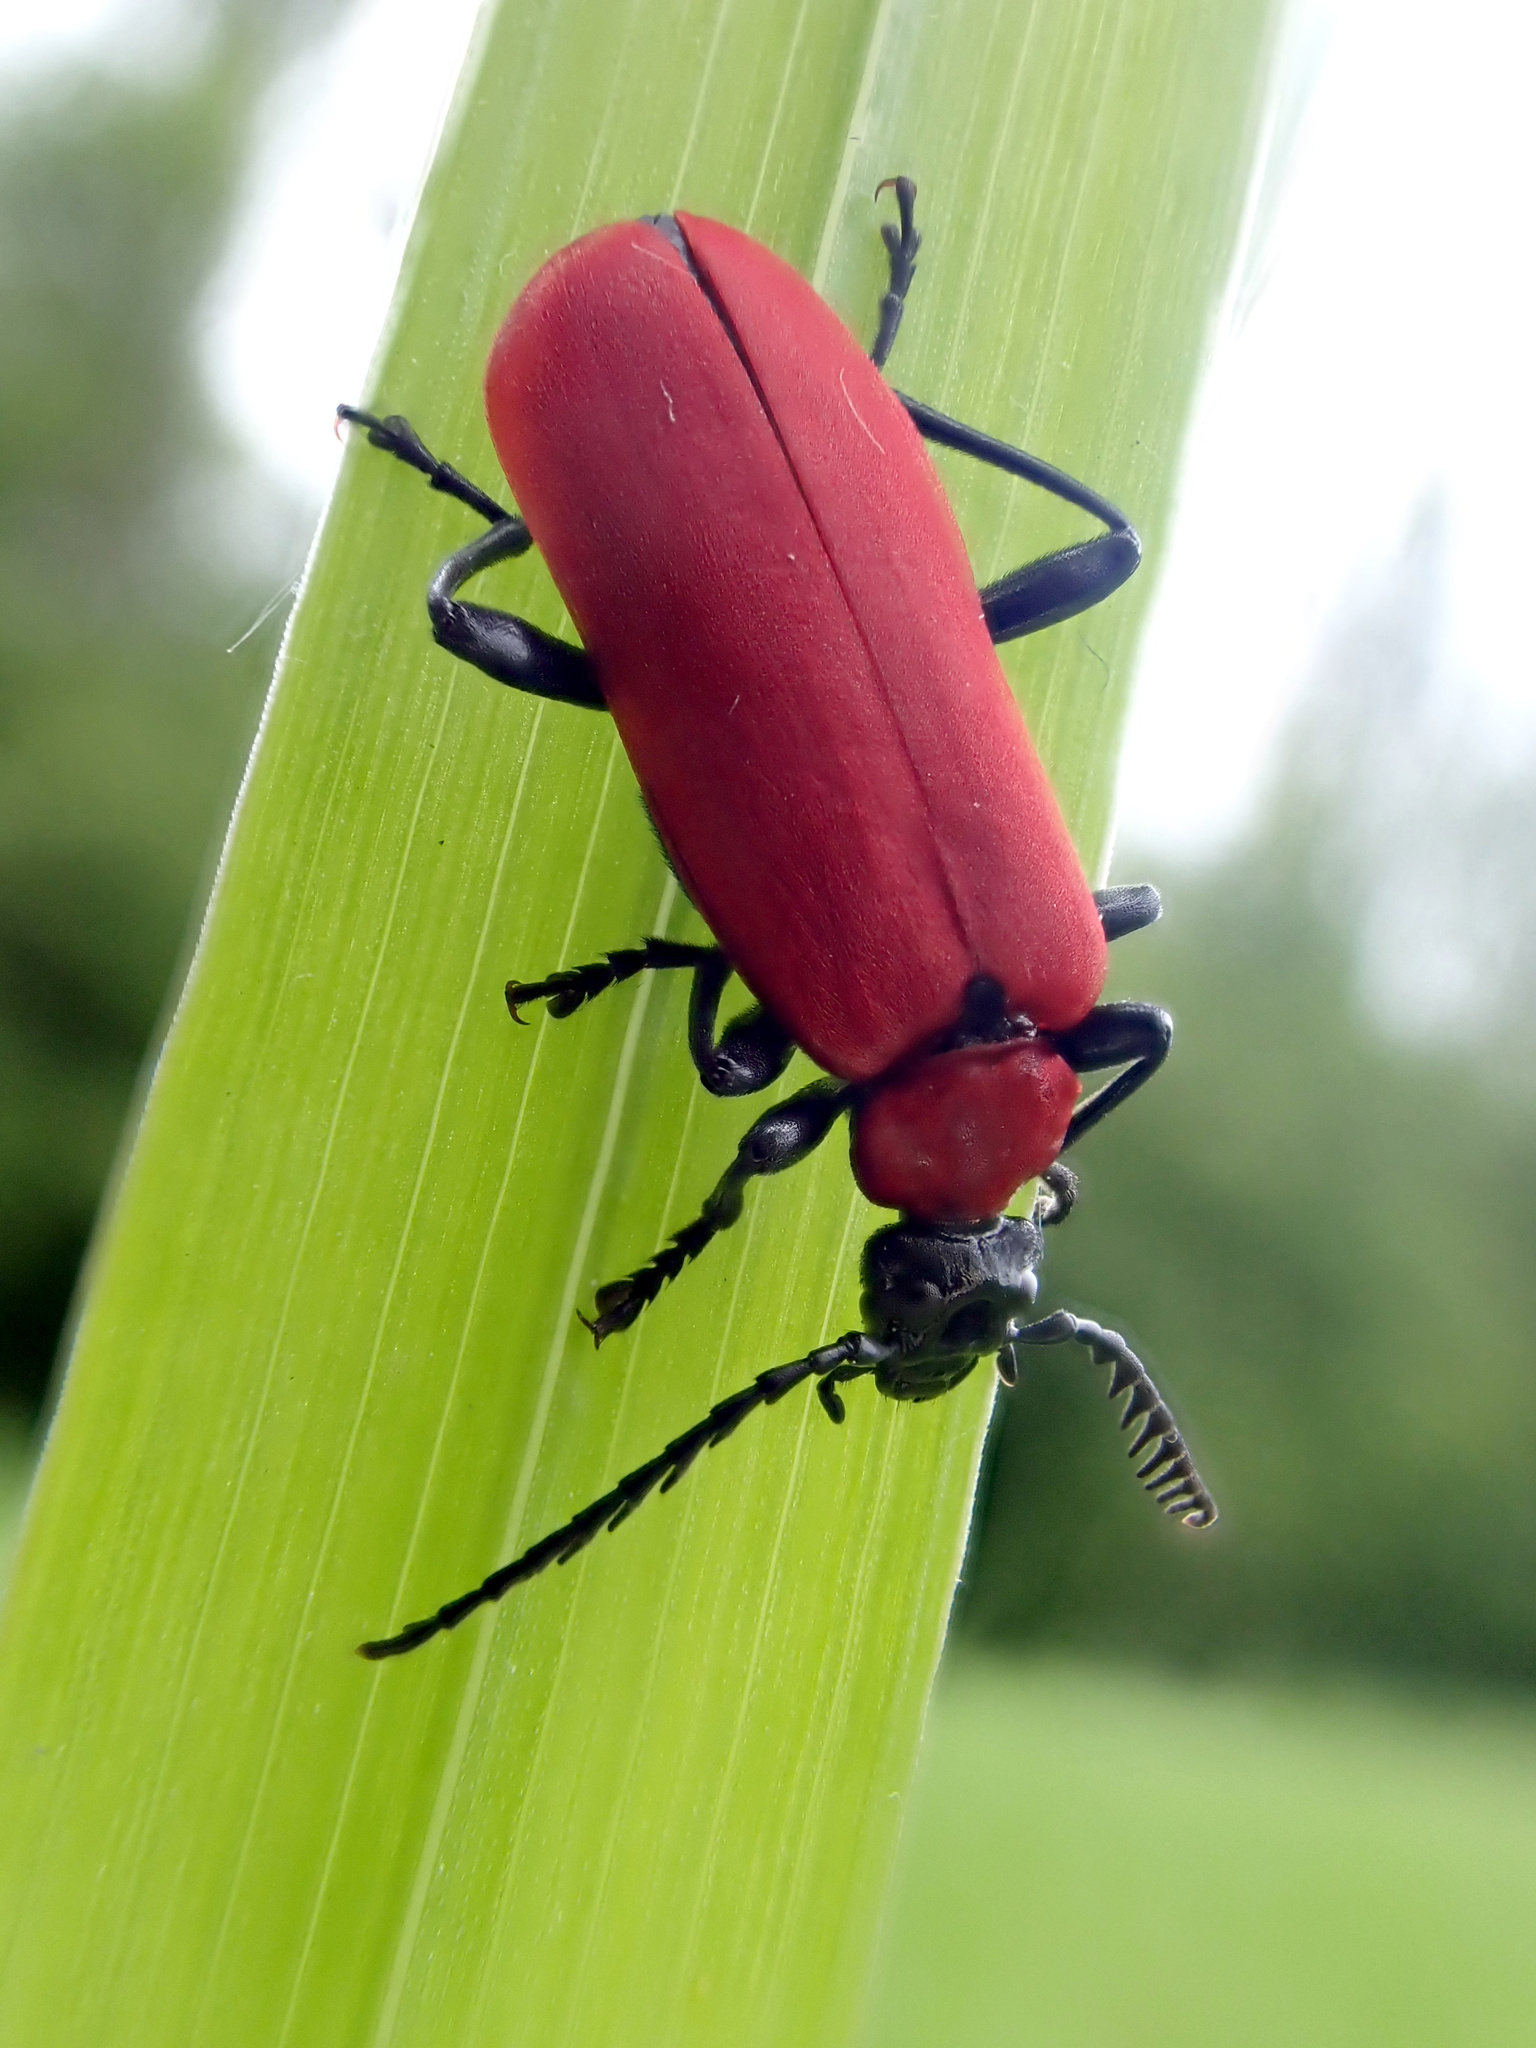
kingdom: Animalia
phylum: Arthropoda
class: Insecta
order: Coleoptera
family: Pyrochroidae
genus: Pyrochroa
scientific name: Pyrochroa coccinea
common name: Black-headed cardinal beetle
